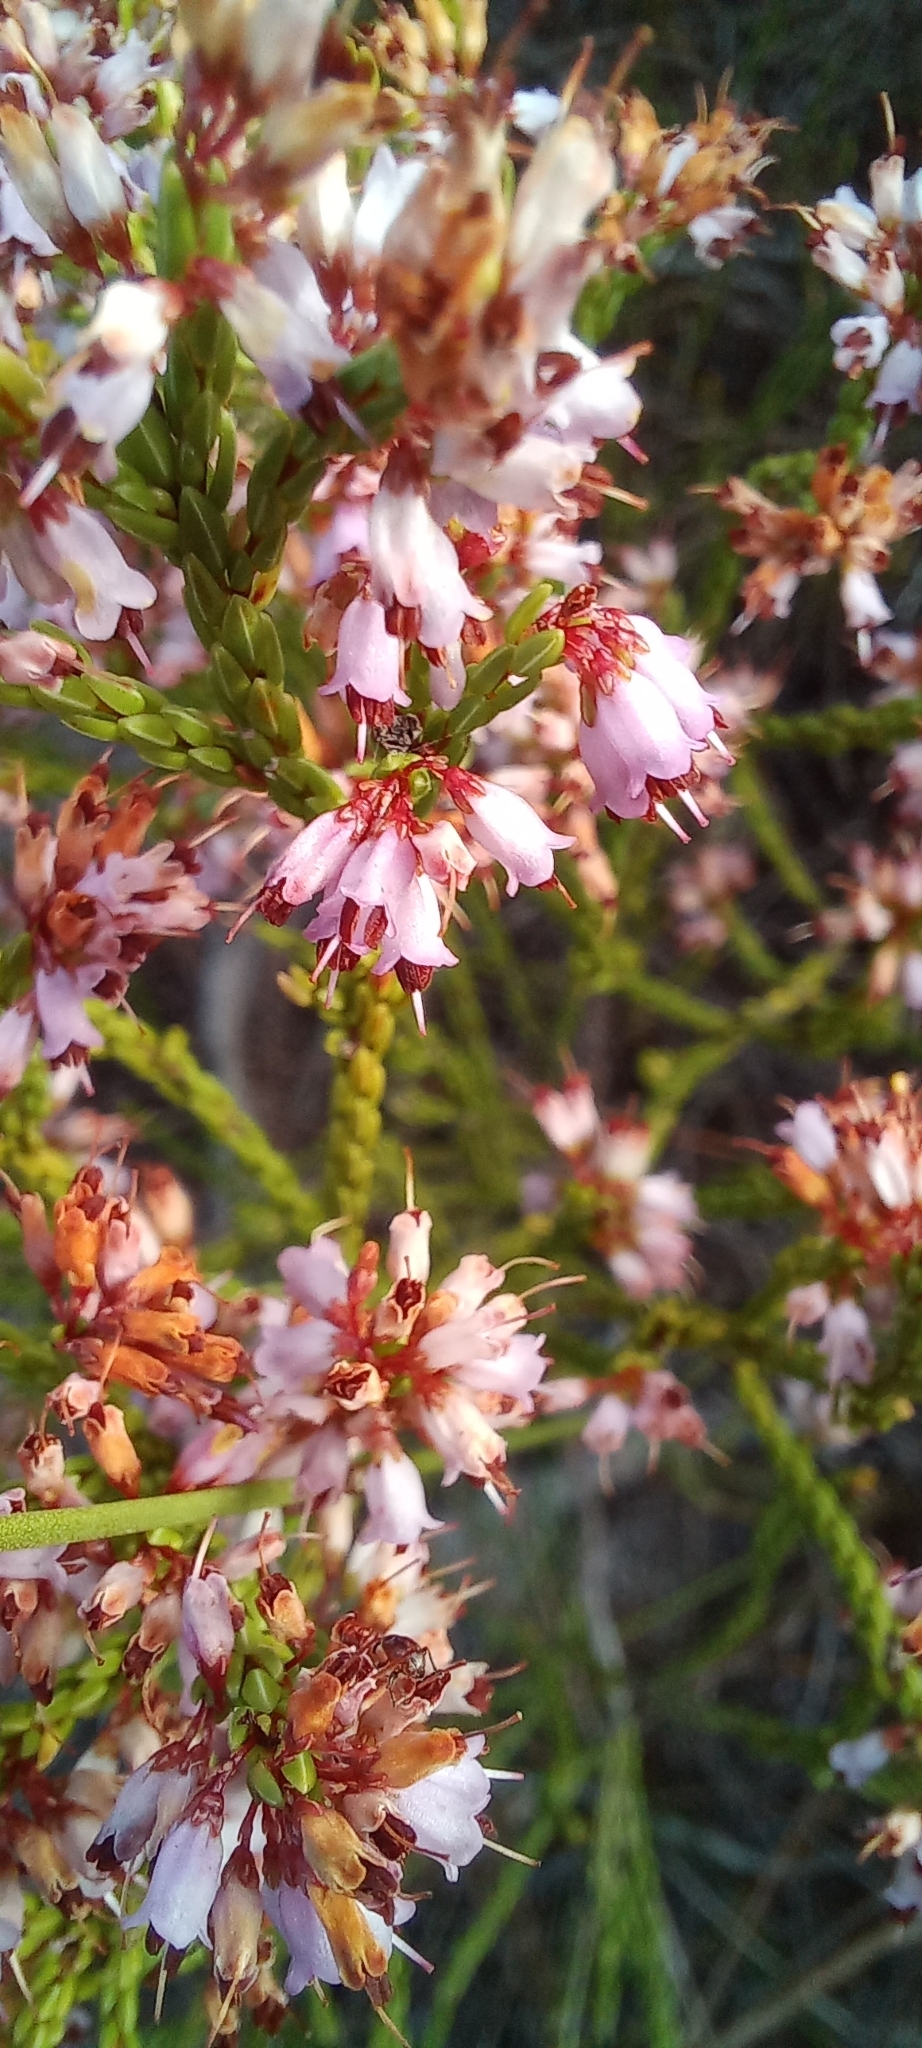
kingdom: Plantae
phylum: Tracheophyta
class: Magnoliopsida
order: Ericales
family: Ericaceae
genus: Erica
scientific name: Erica equisetifolia
